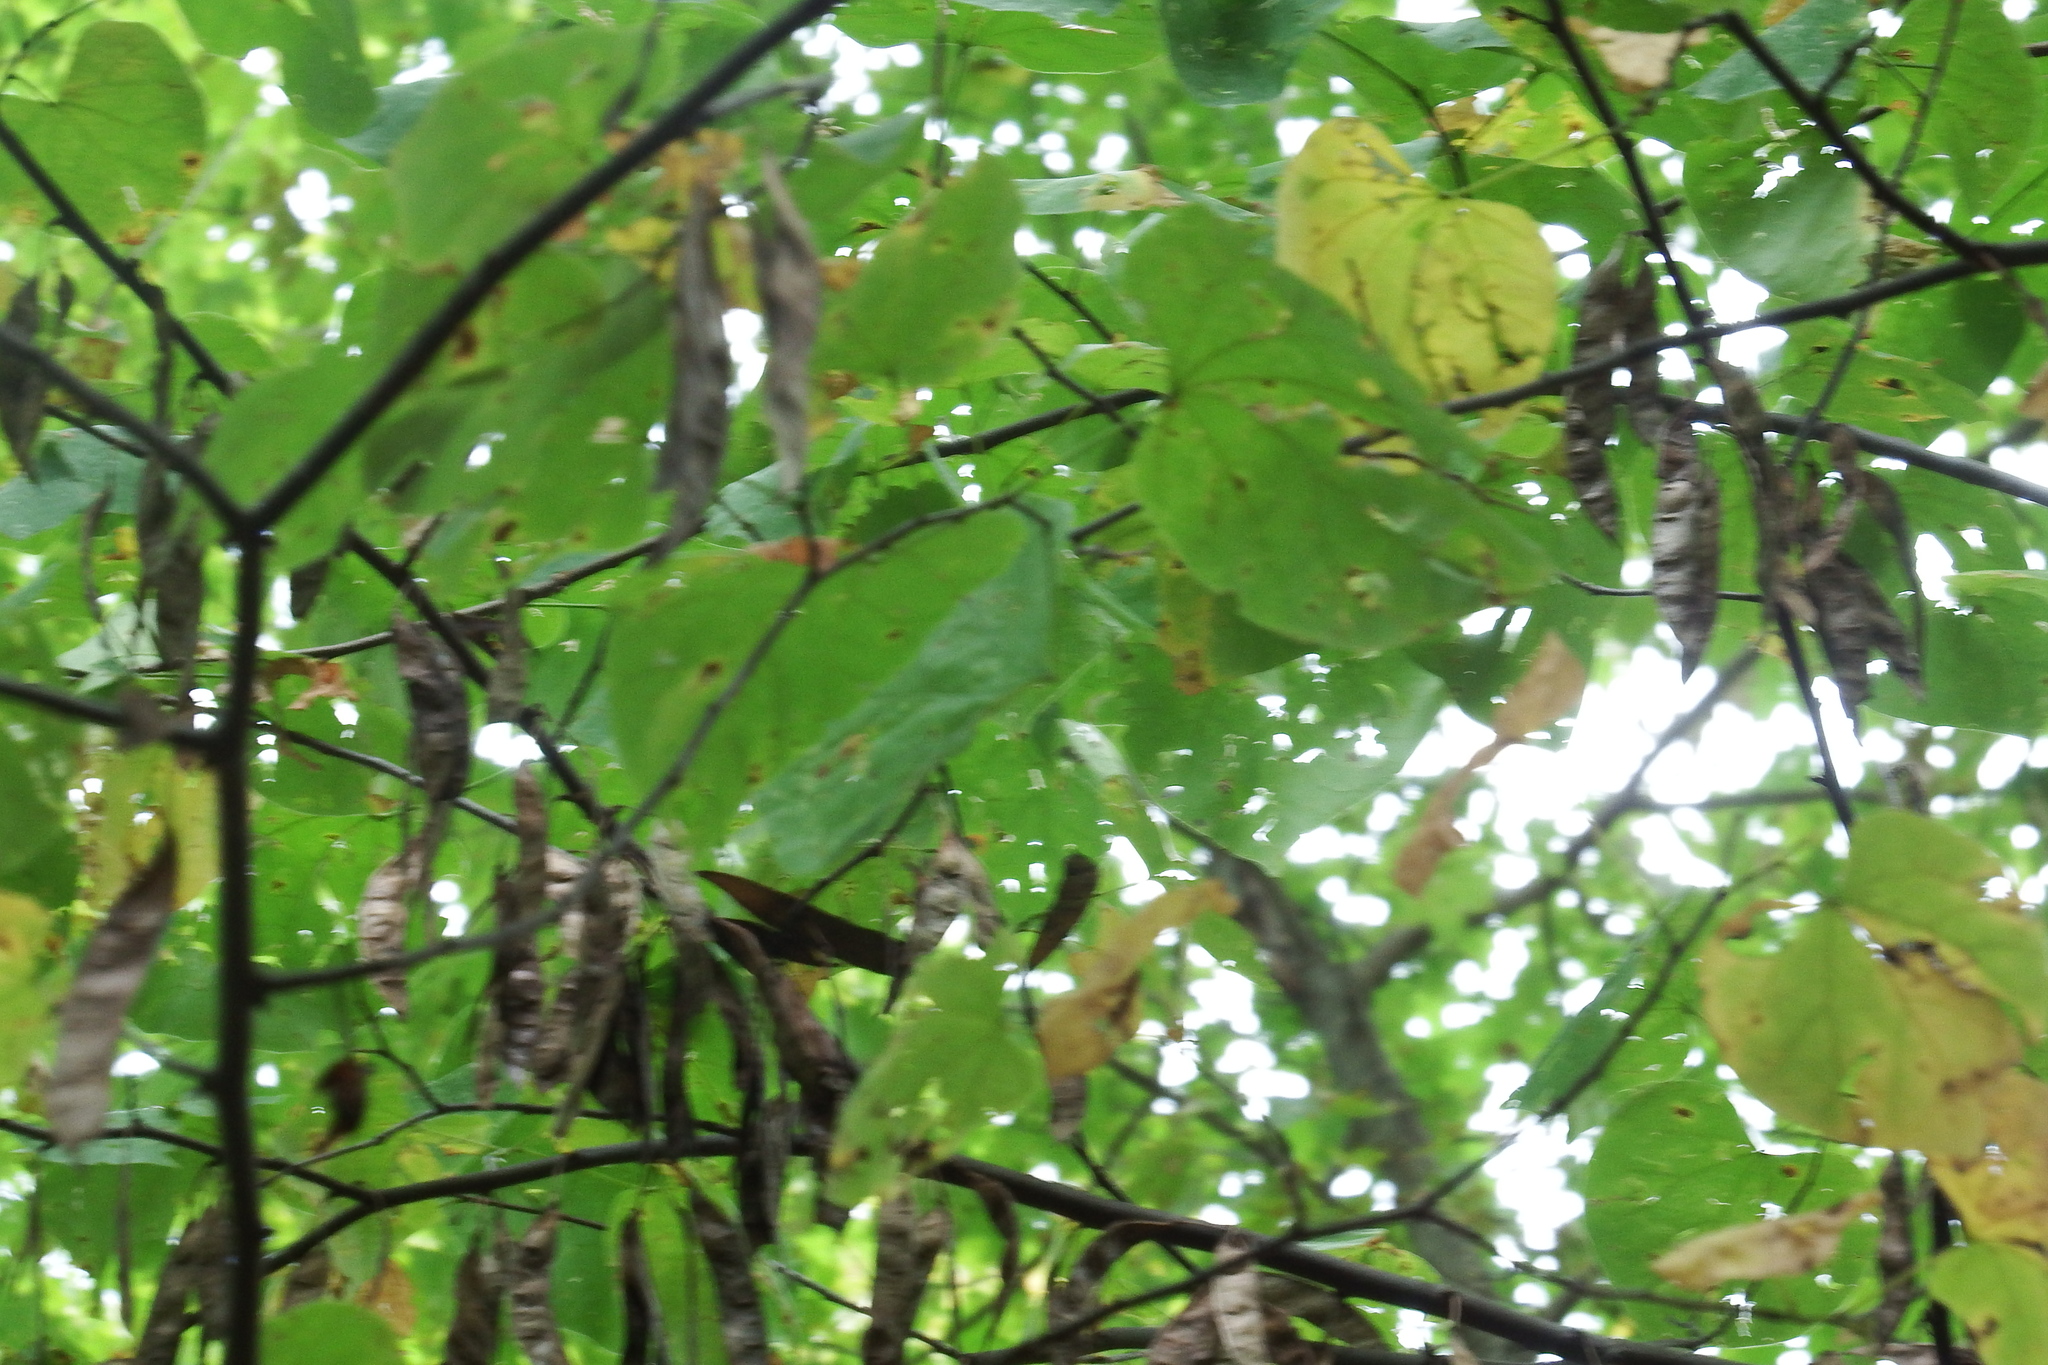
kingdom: Plantae
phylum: Tracheophyta
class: Magnoliopsida
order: Fabales
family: Fabaceae
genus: Cercis
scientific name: Cercis canadensis
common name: Eastern redbud
